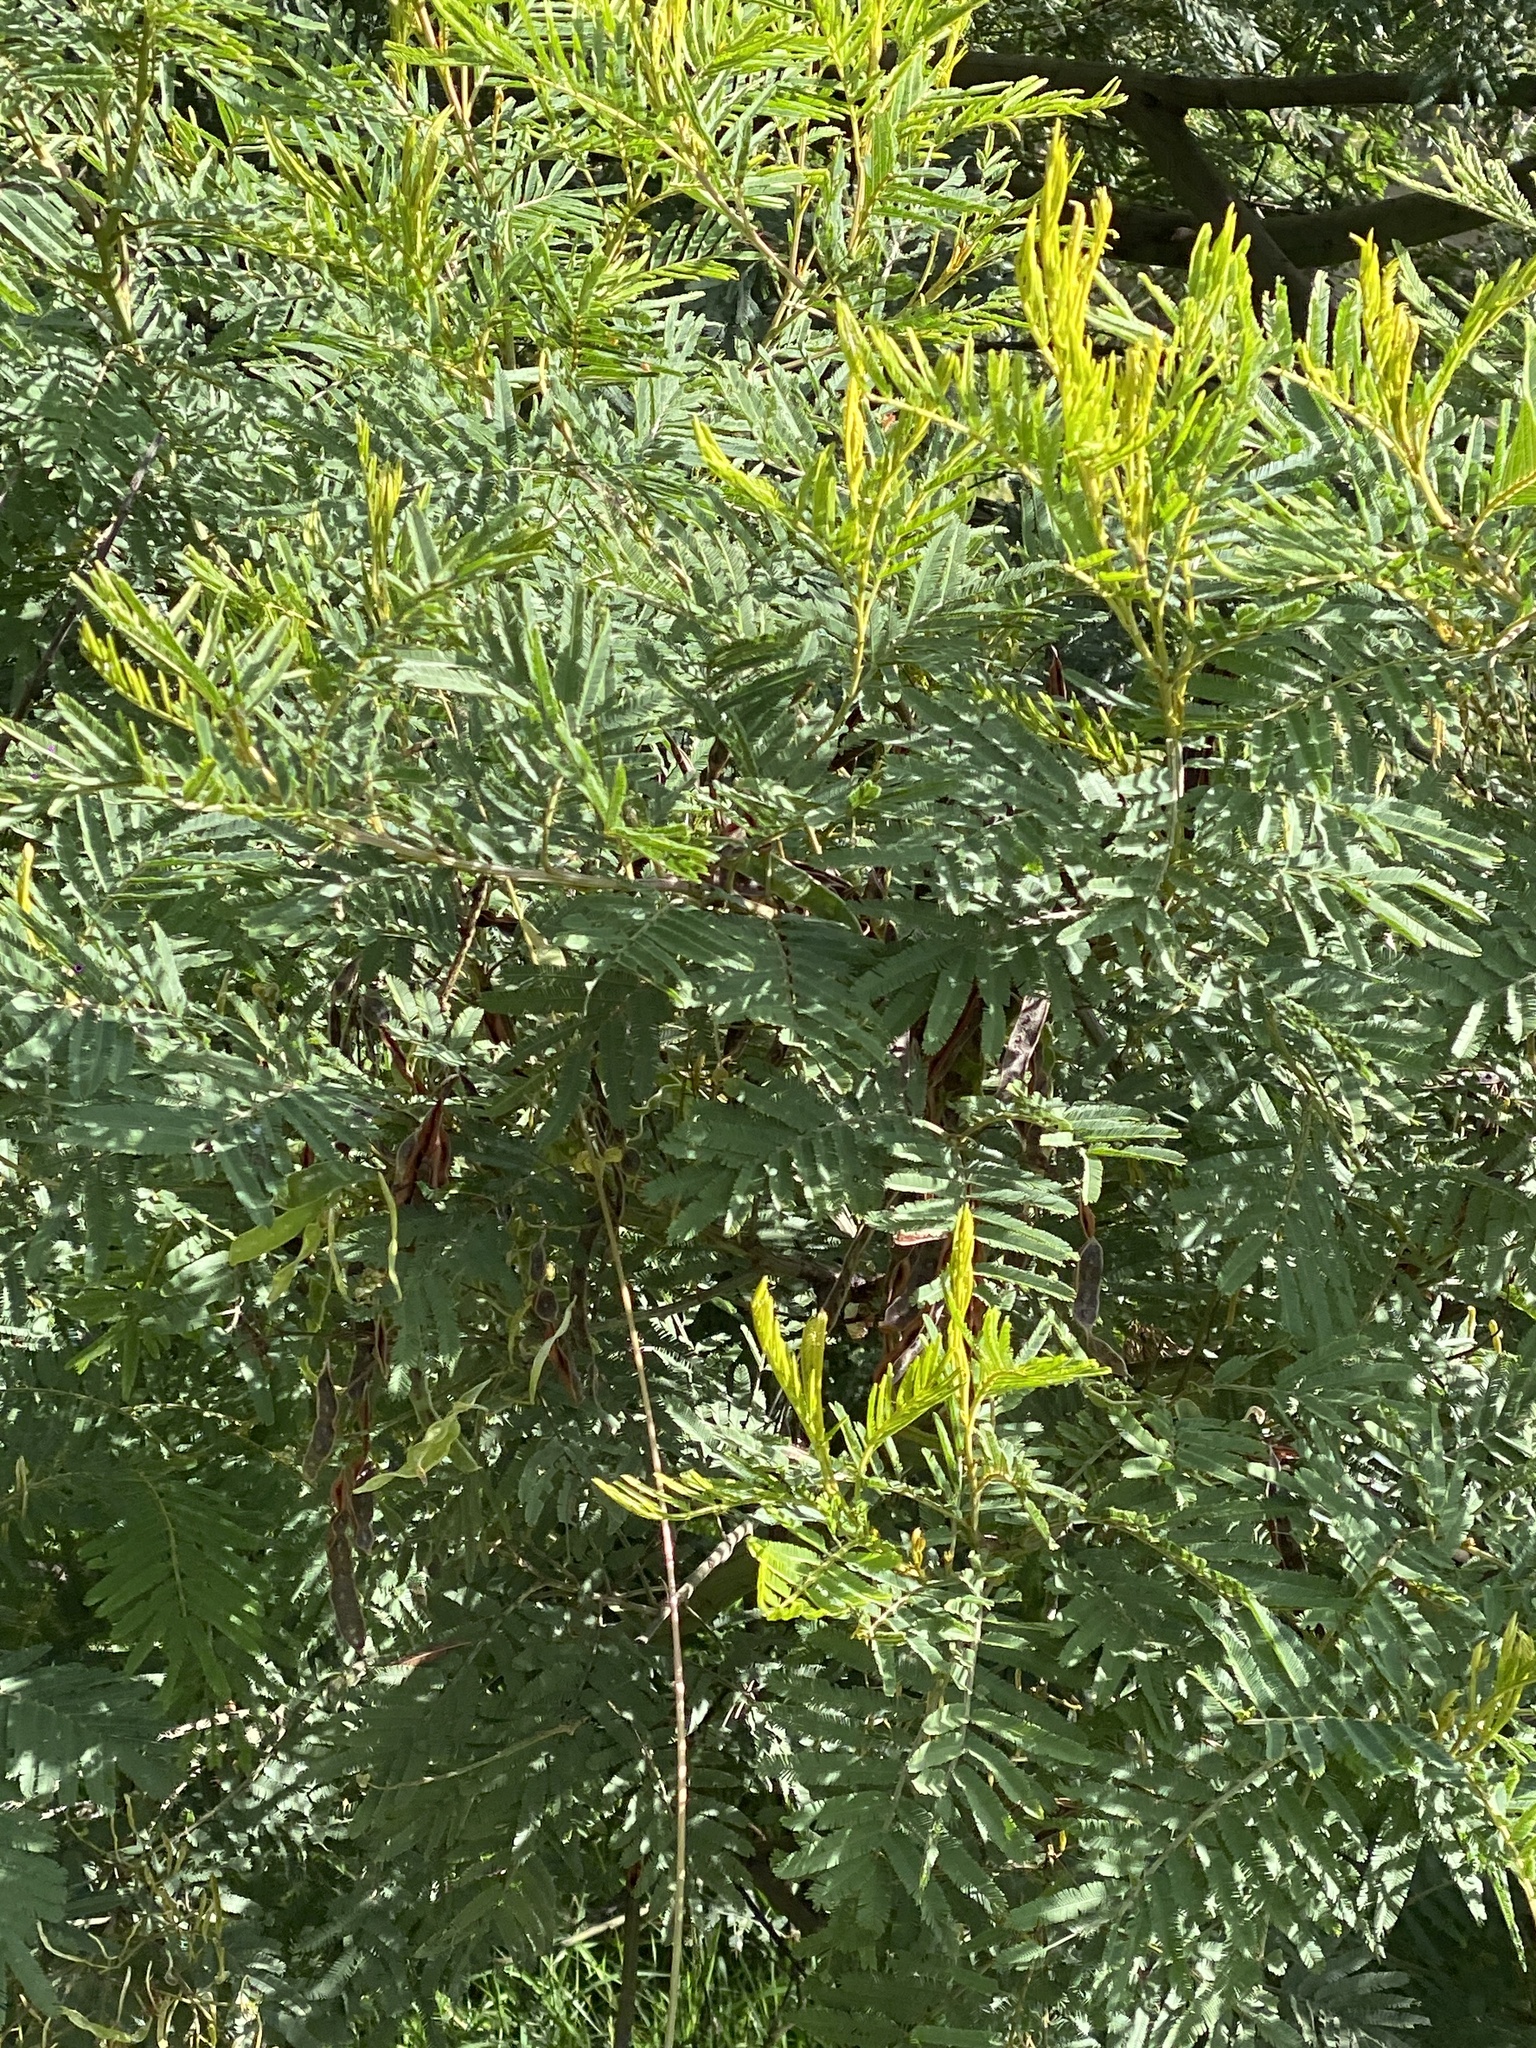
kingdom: Plantae
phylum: Tracheophyta
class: Magnoliopsida
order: Fabales
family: Fabaceae
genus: Acacia
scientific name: Acacia irrorata
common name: Green wattle
